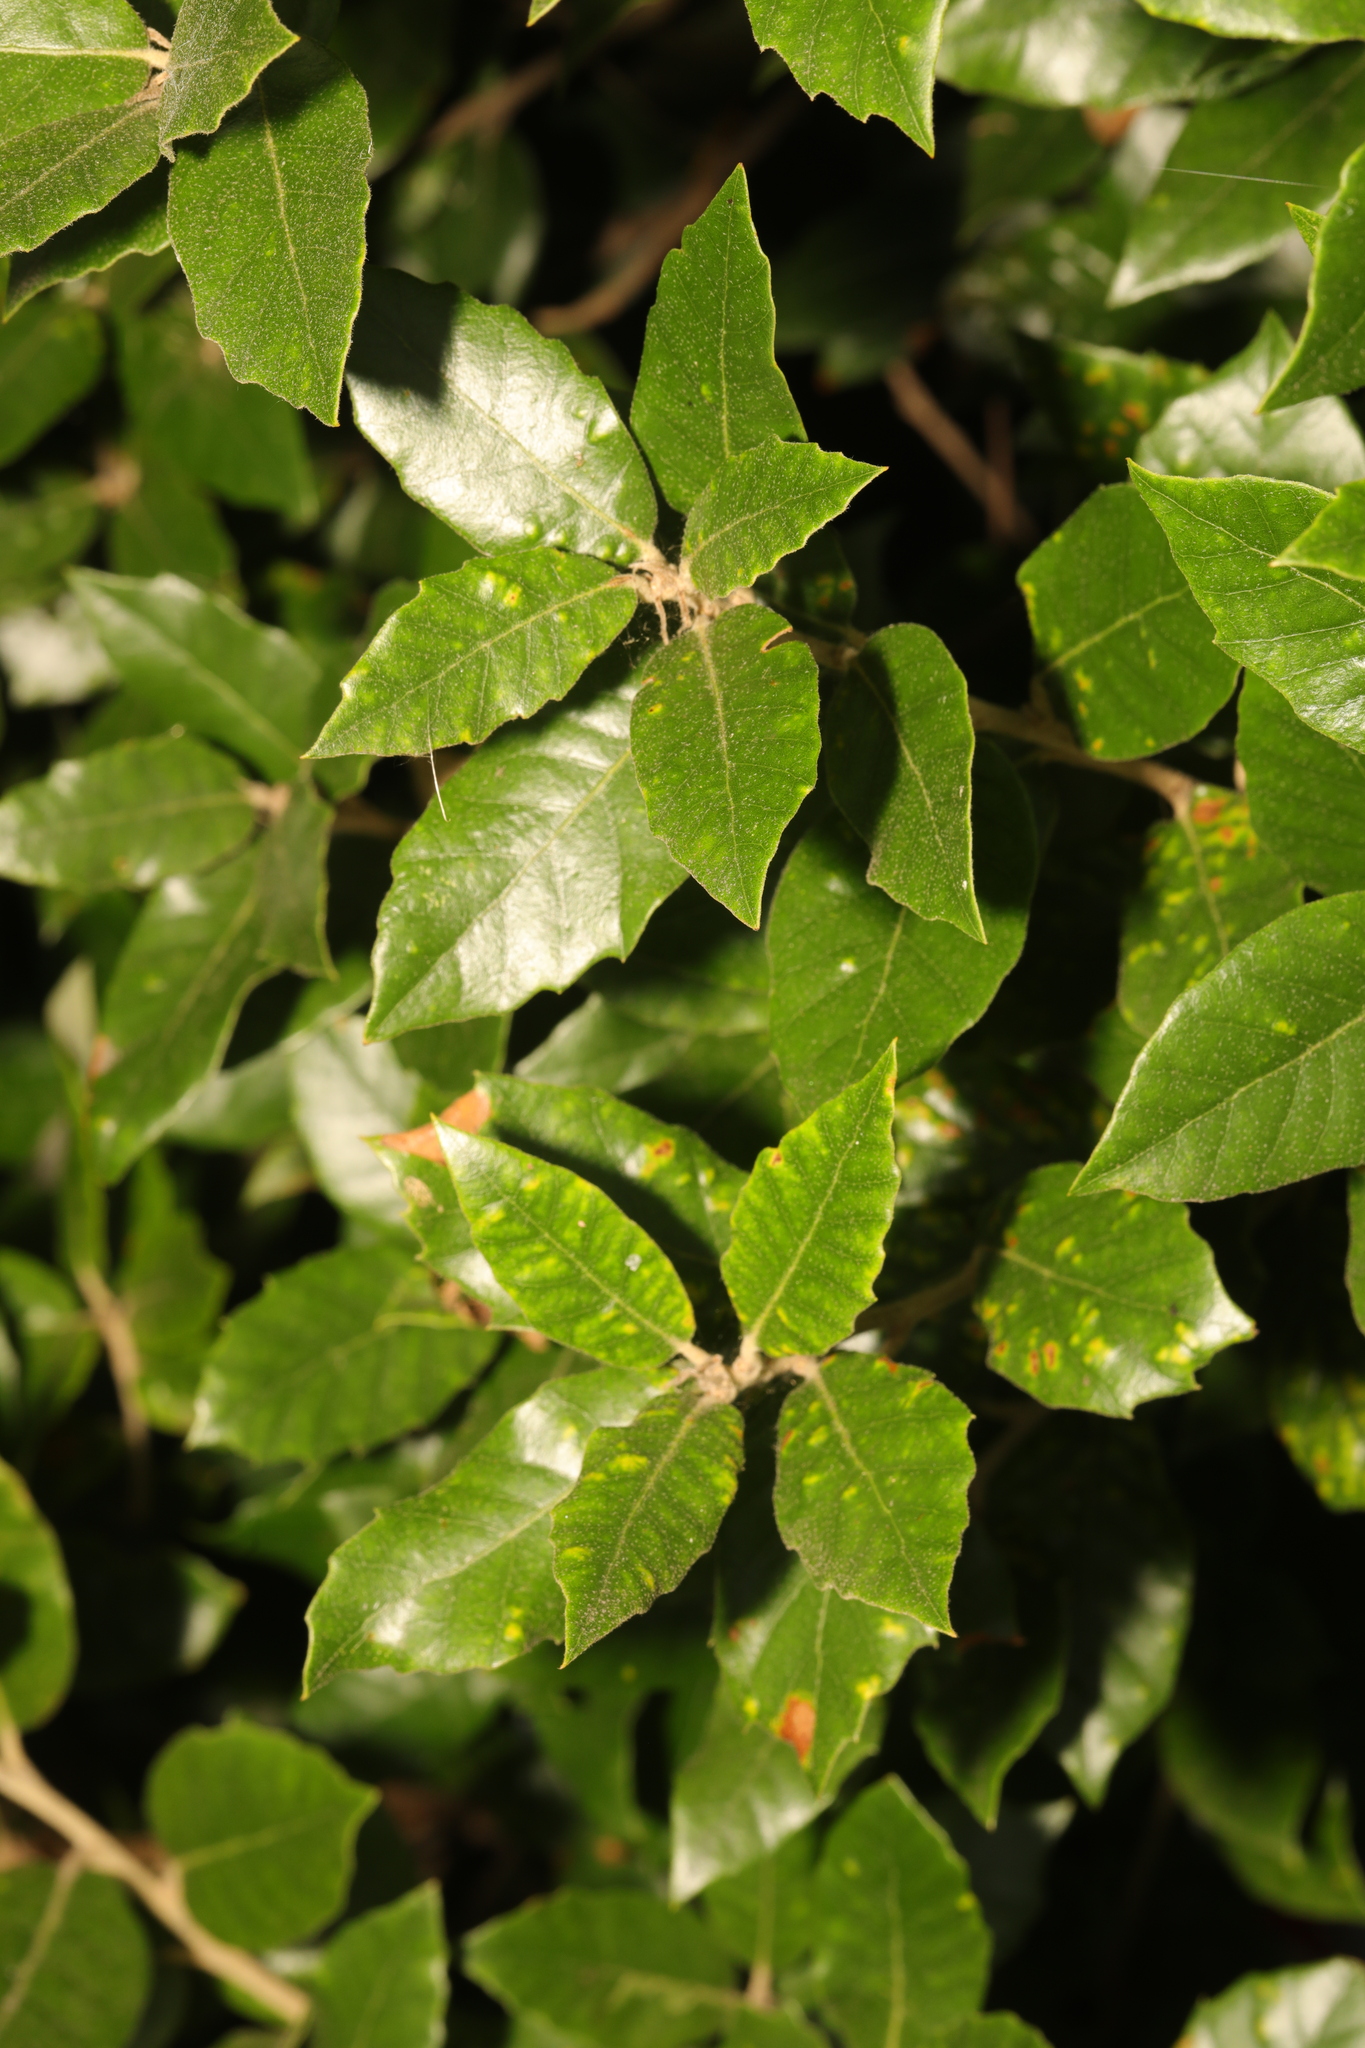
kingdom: Plantae
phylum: Tracheophyta
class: Magnoliopsida
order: Fagales
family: Fagaceae
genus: Quercus
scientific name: Quercus ilex
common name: Evergreen oak
